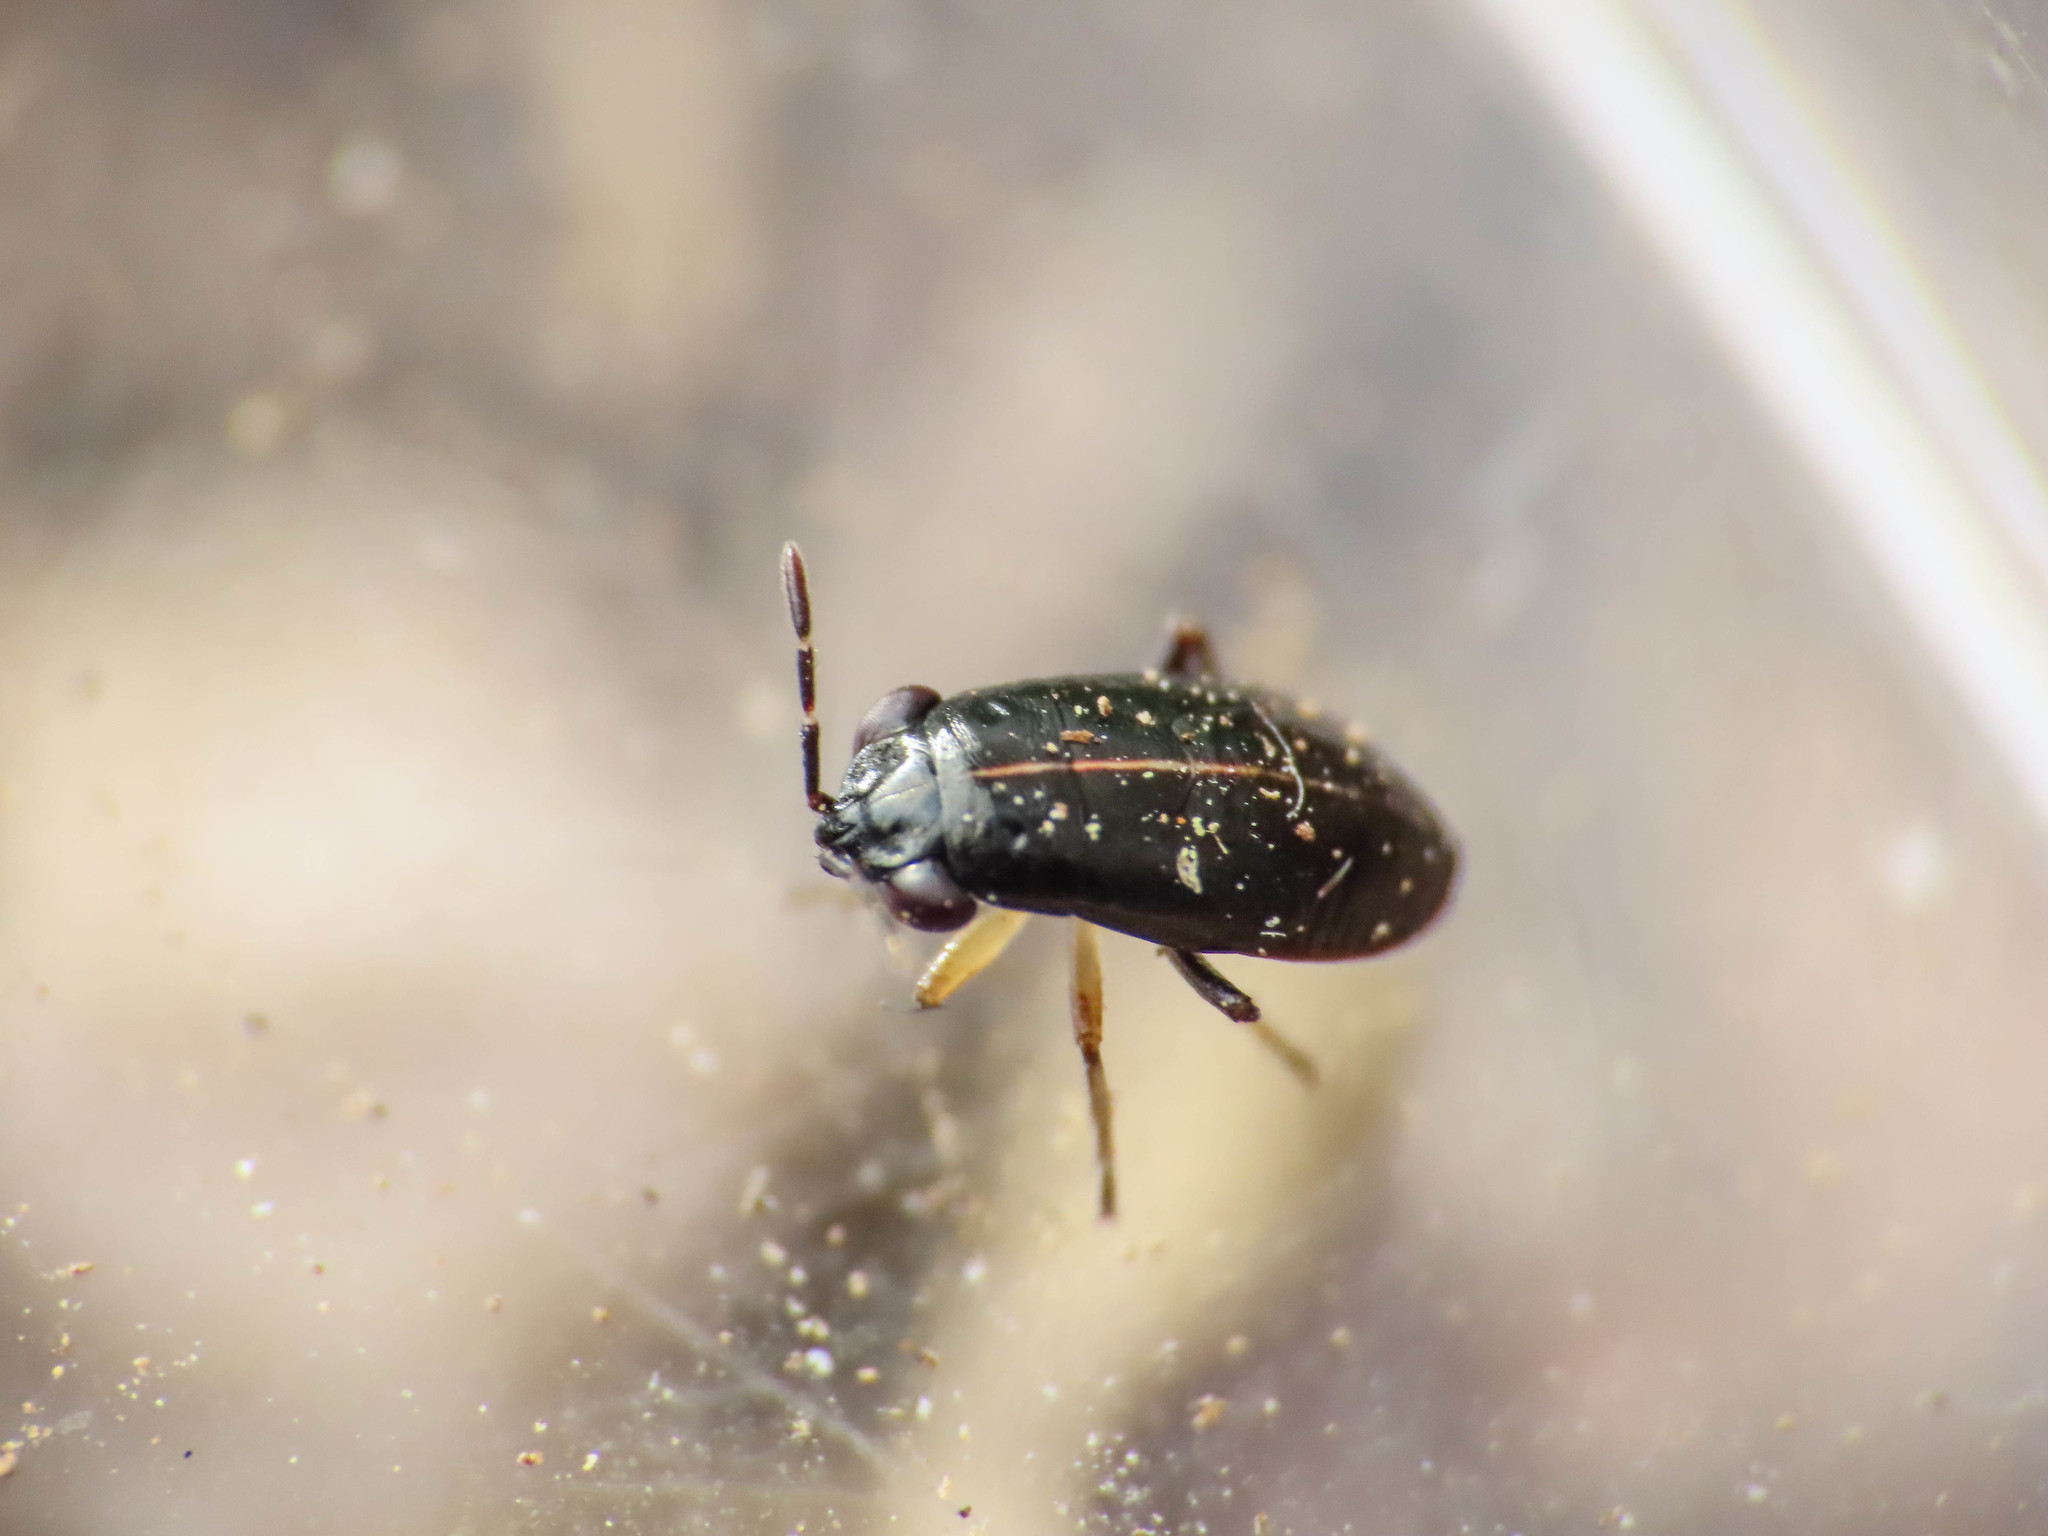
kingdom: Animalia
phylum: Arthropoda
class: Insecta
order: Hemiptera
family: Geocoridae
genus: Geocoris
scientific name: Geocoris ater
